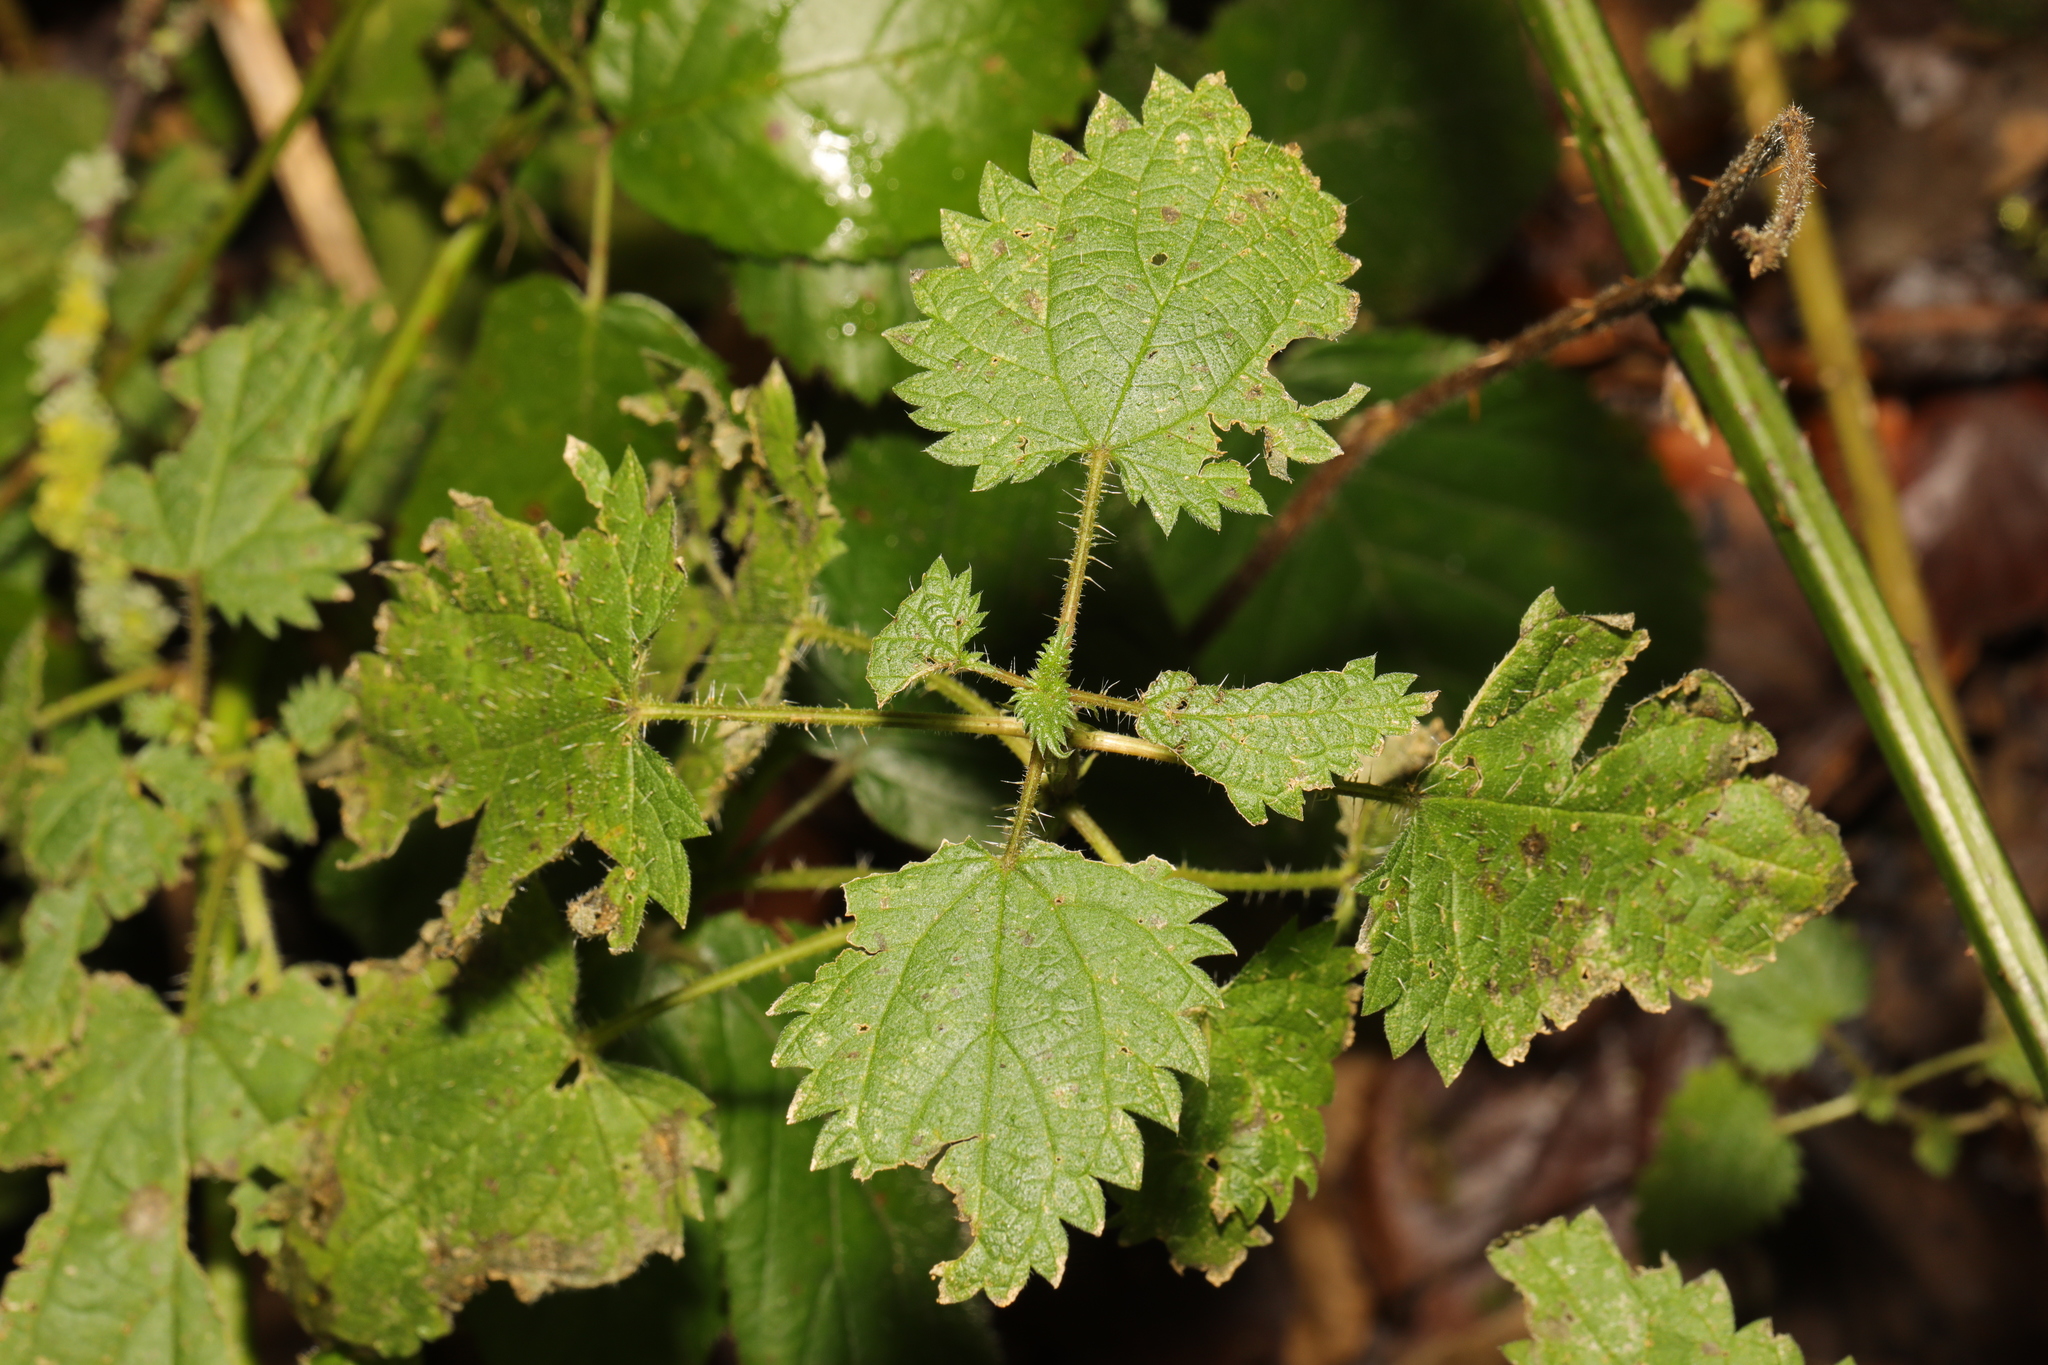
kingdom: Plantae
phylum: Tracheophyta
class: Magnoliopsida
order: Rosales
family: Urticaceae
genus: Urtica
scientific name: Urtica dioica
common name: Common nettle
